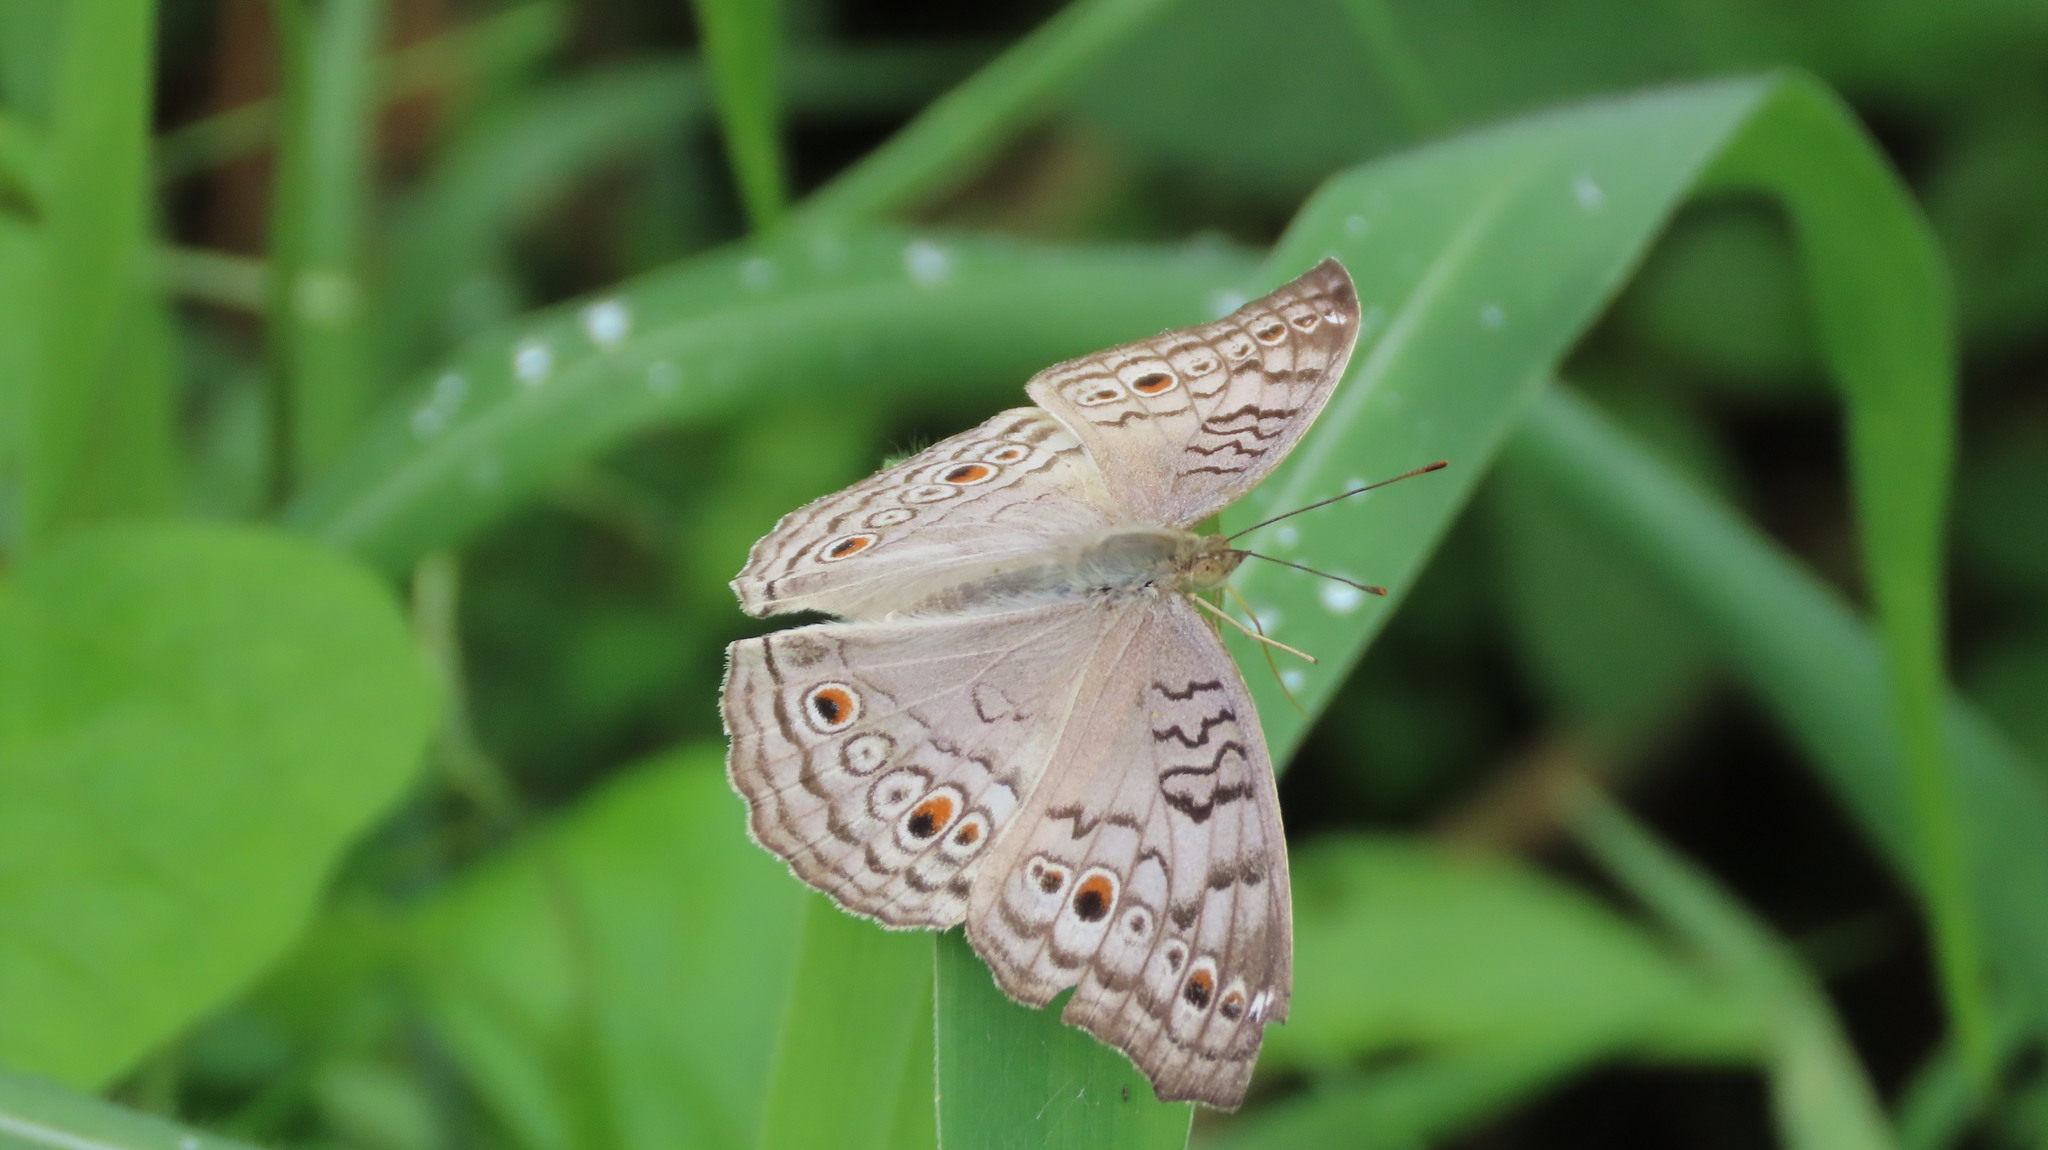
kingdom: Animalia
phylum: Arthropoda
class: Insecta
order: Lepidoptera
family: Nymphalidae
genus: Junonia
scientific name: Junonia atlites
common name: Grey pansy
